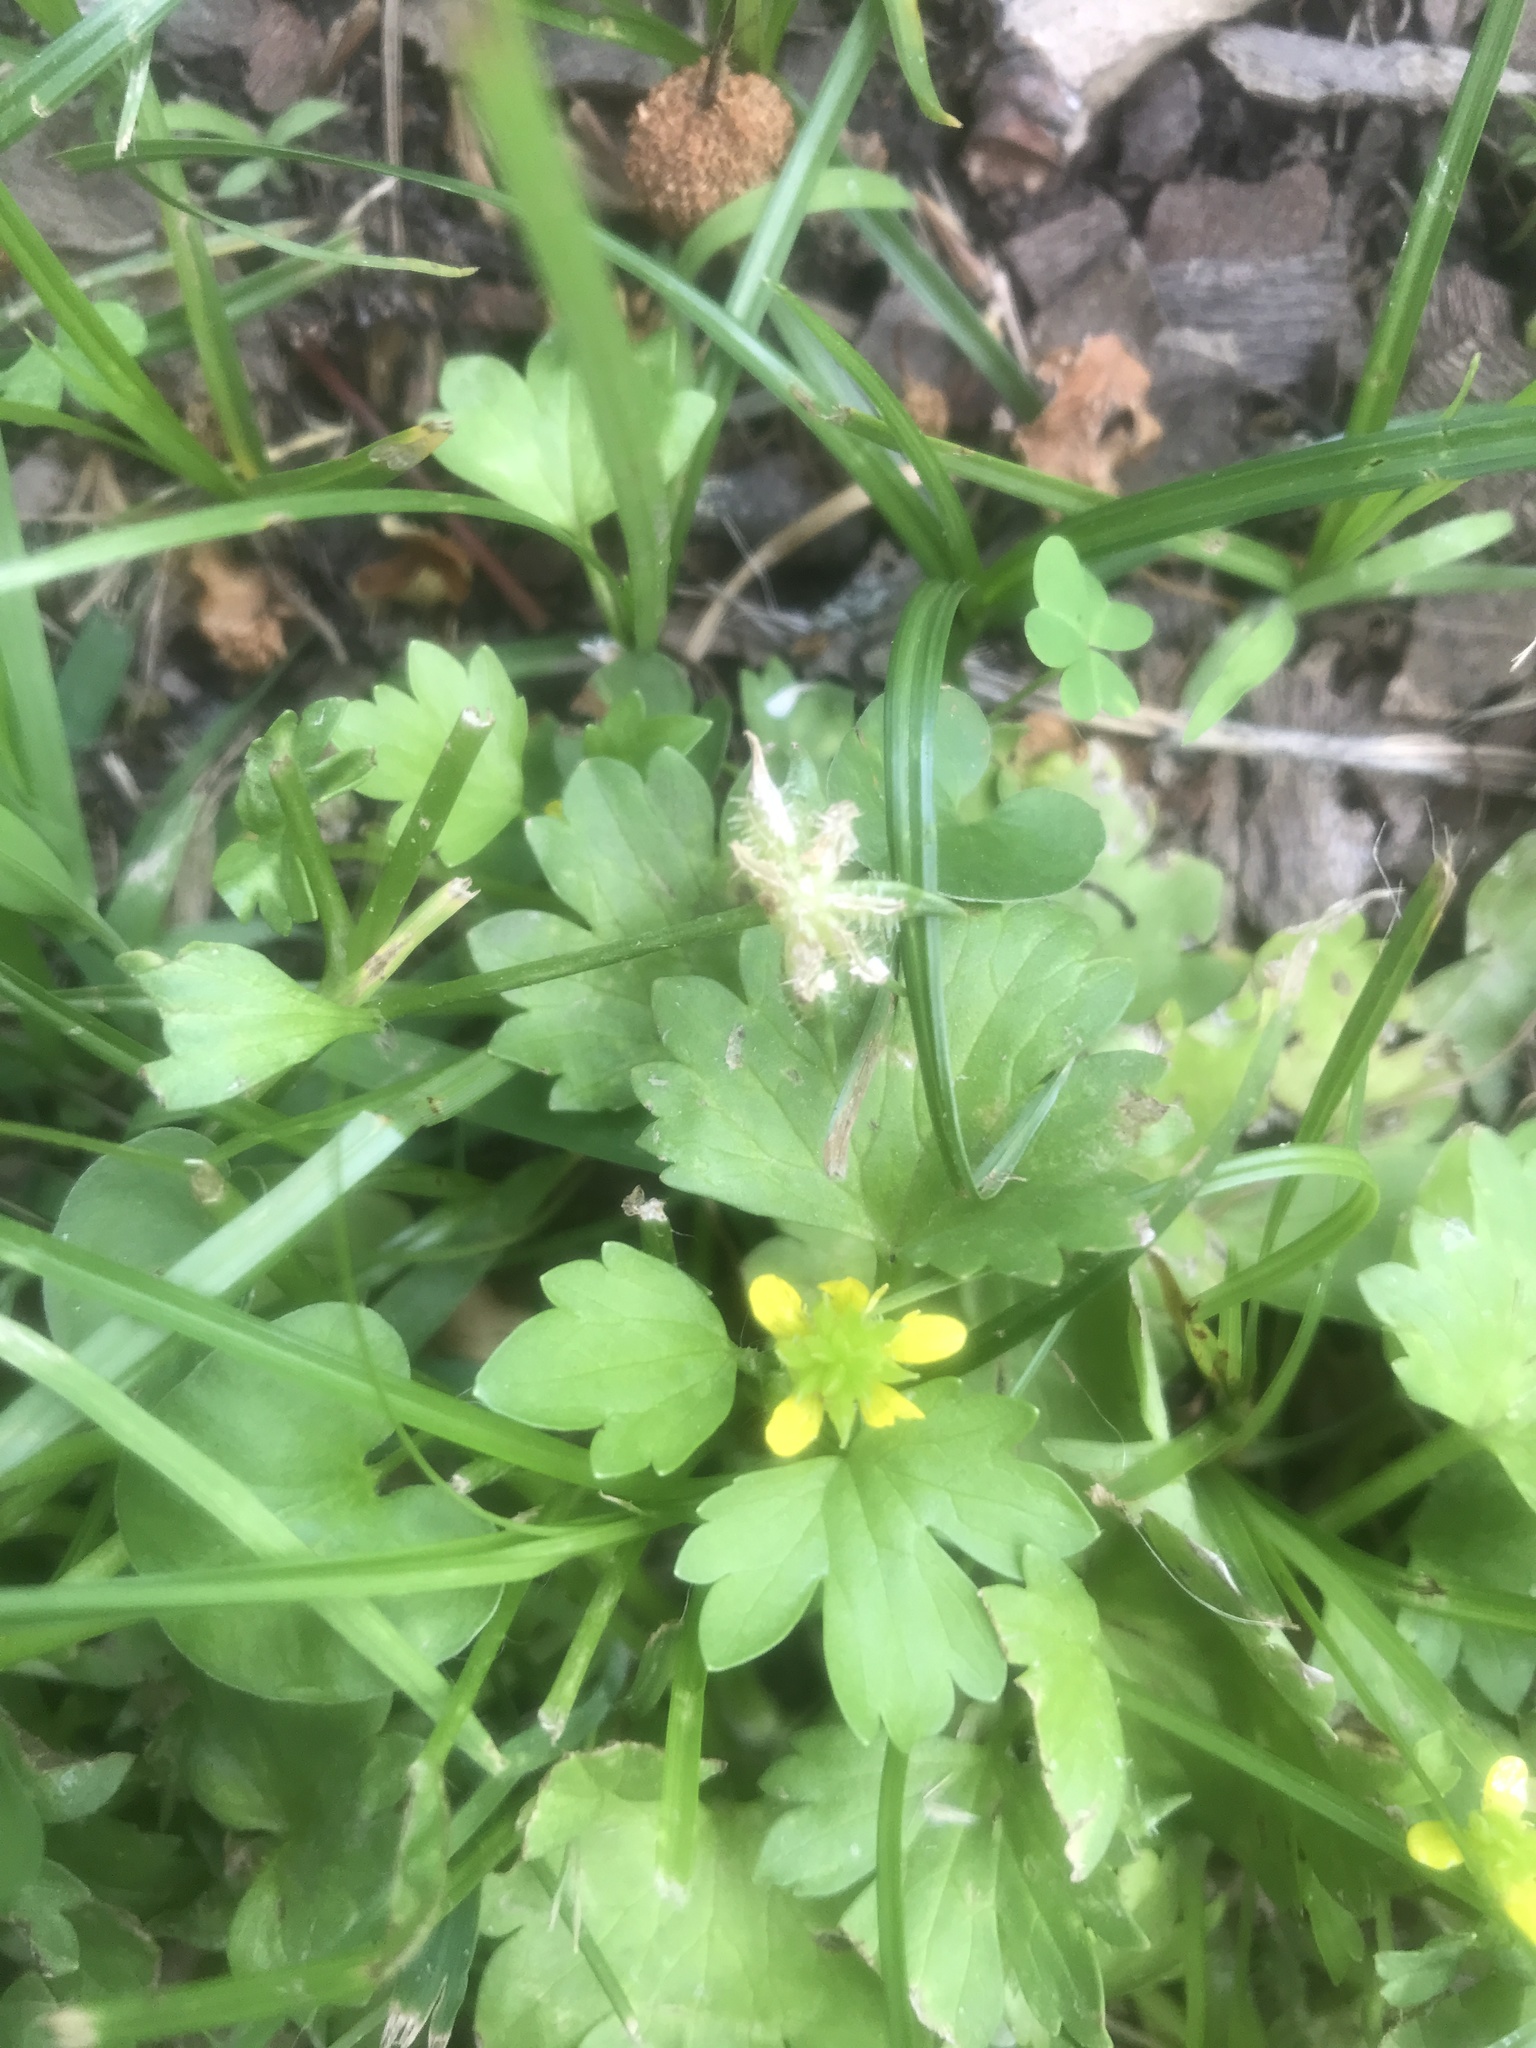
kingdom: Plantae
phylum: Tracheophyta
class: Magnoliopsida
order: Ranunculales
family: Ranunculaceae
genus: Ranunculus
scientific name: Ranunculus muricatus
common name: Rough-fruited buttercup
